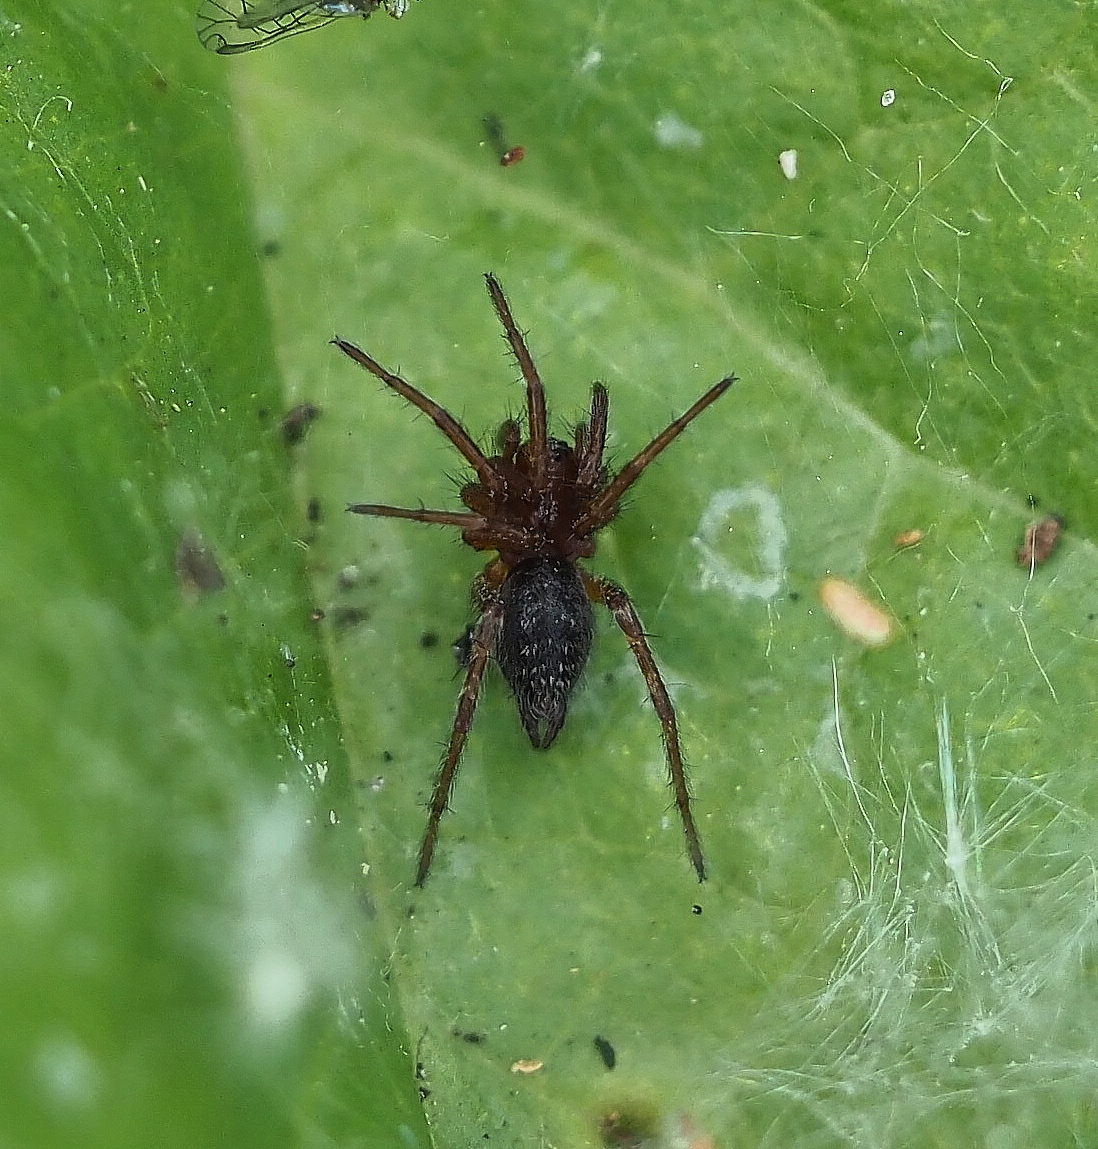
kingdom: Animalia
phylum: Arthropoda
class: Arachnida
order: Araneae
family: Agelenidae
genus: Agelena
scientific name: Agelena labyrinthica
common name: Labyrinth spider
